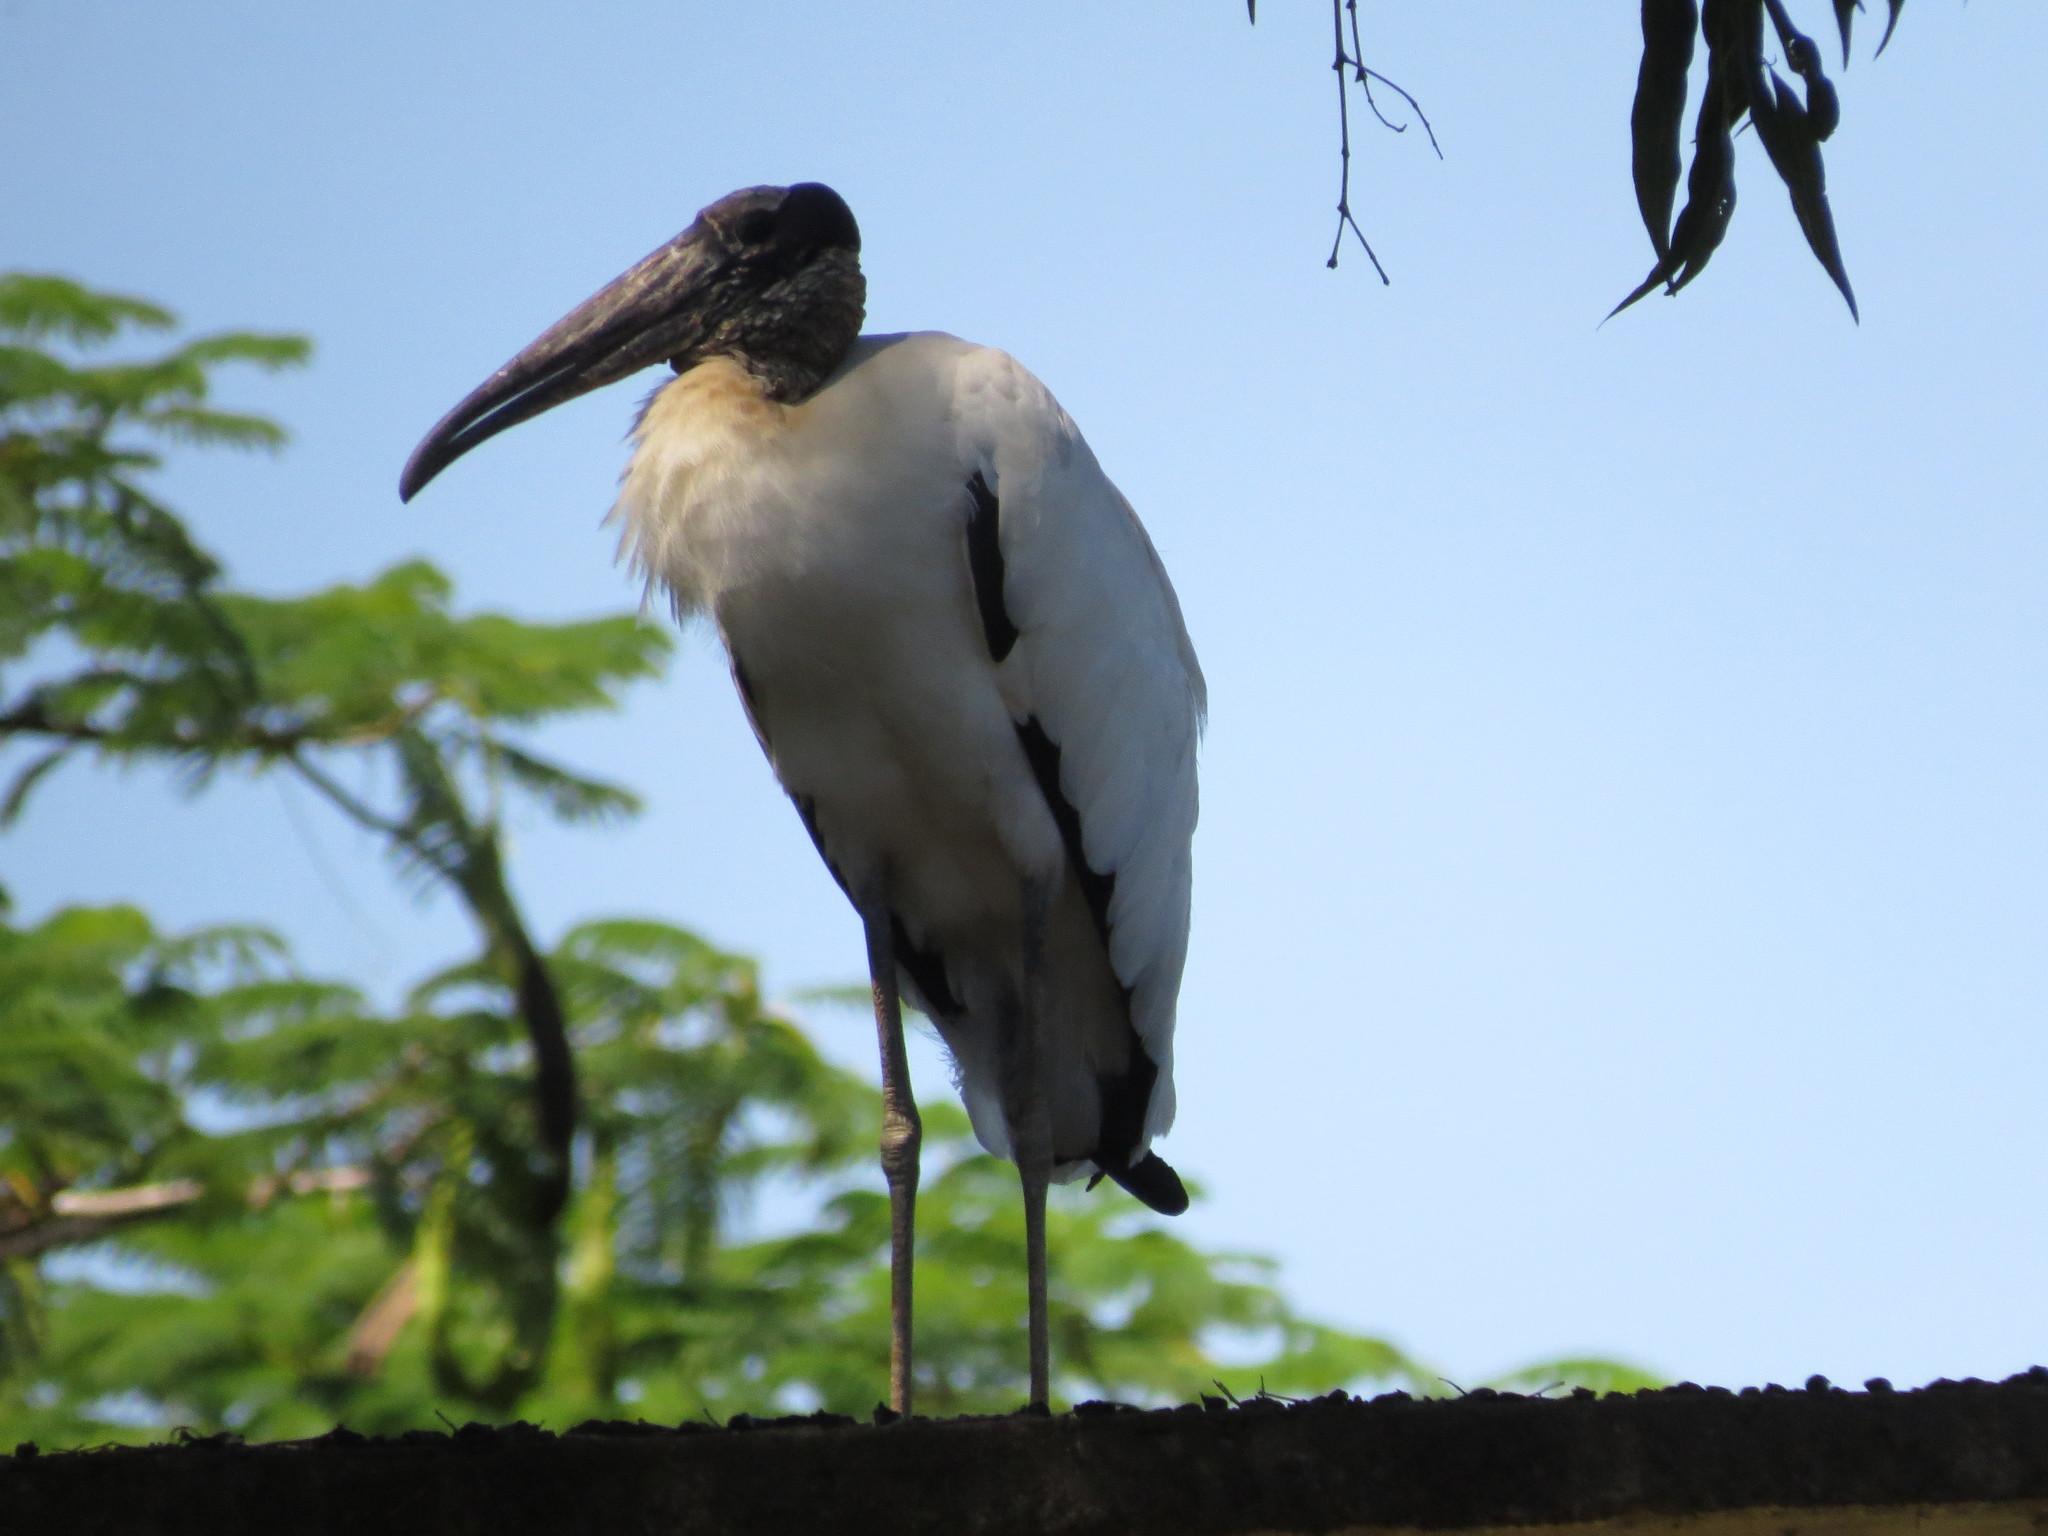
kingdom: Animalia
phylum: Chordata
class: Aves
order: Ciconiiformes
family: Ciconiidae
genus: Mycteria
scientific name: Mycteria americana
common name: Wood stork
